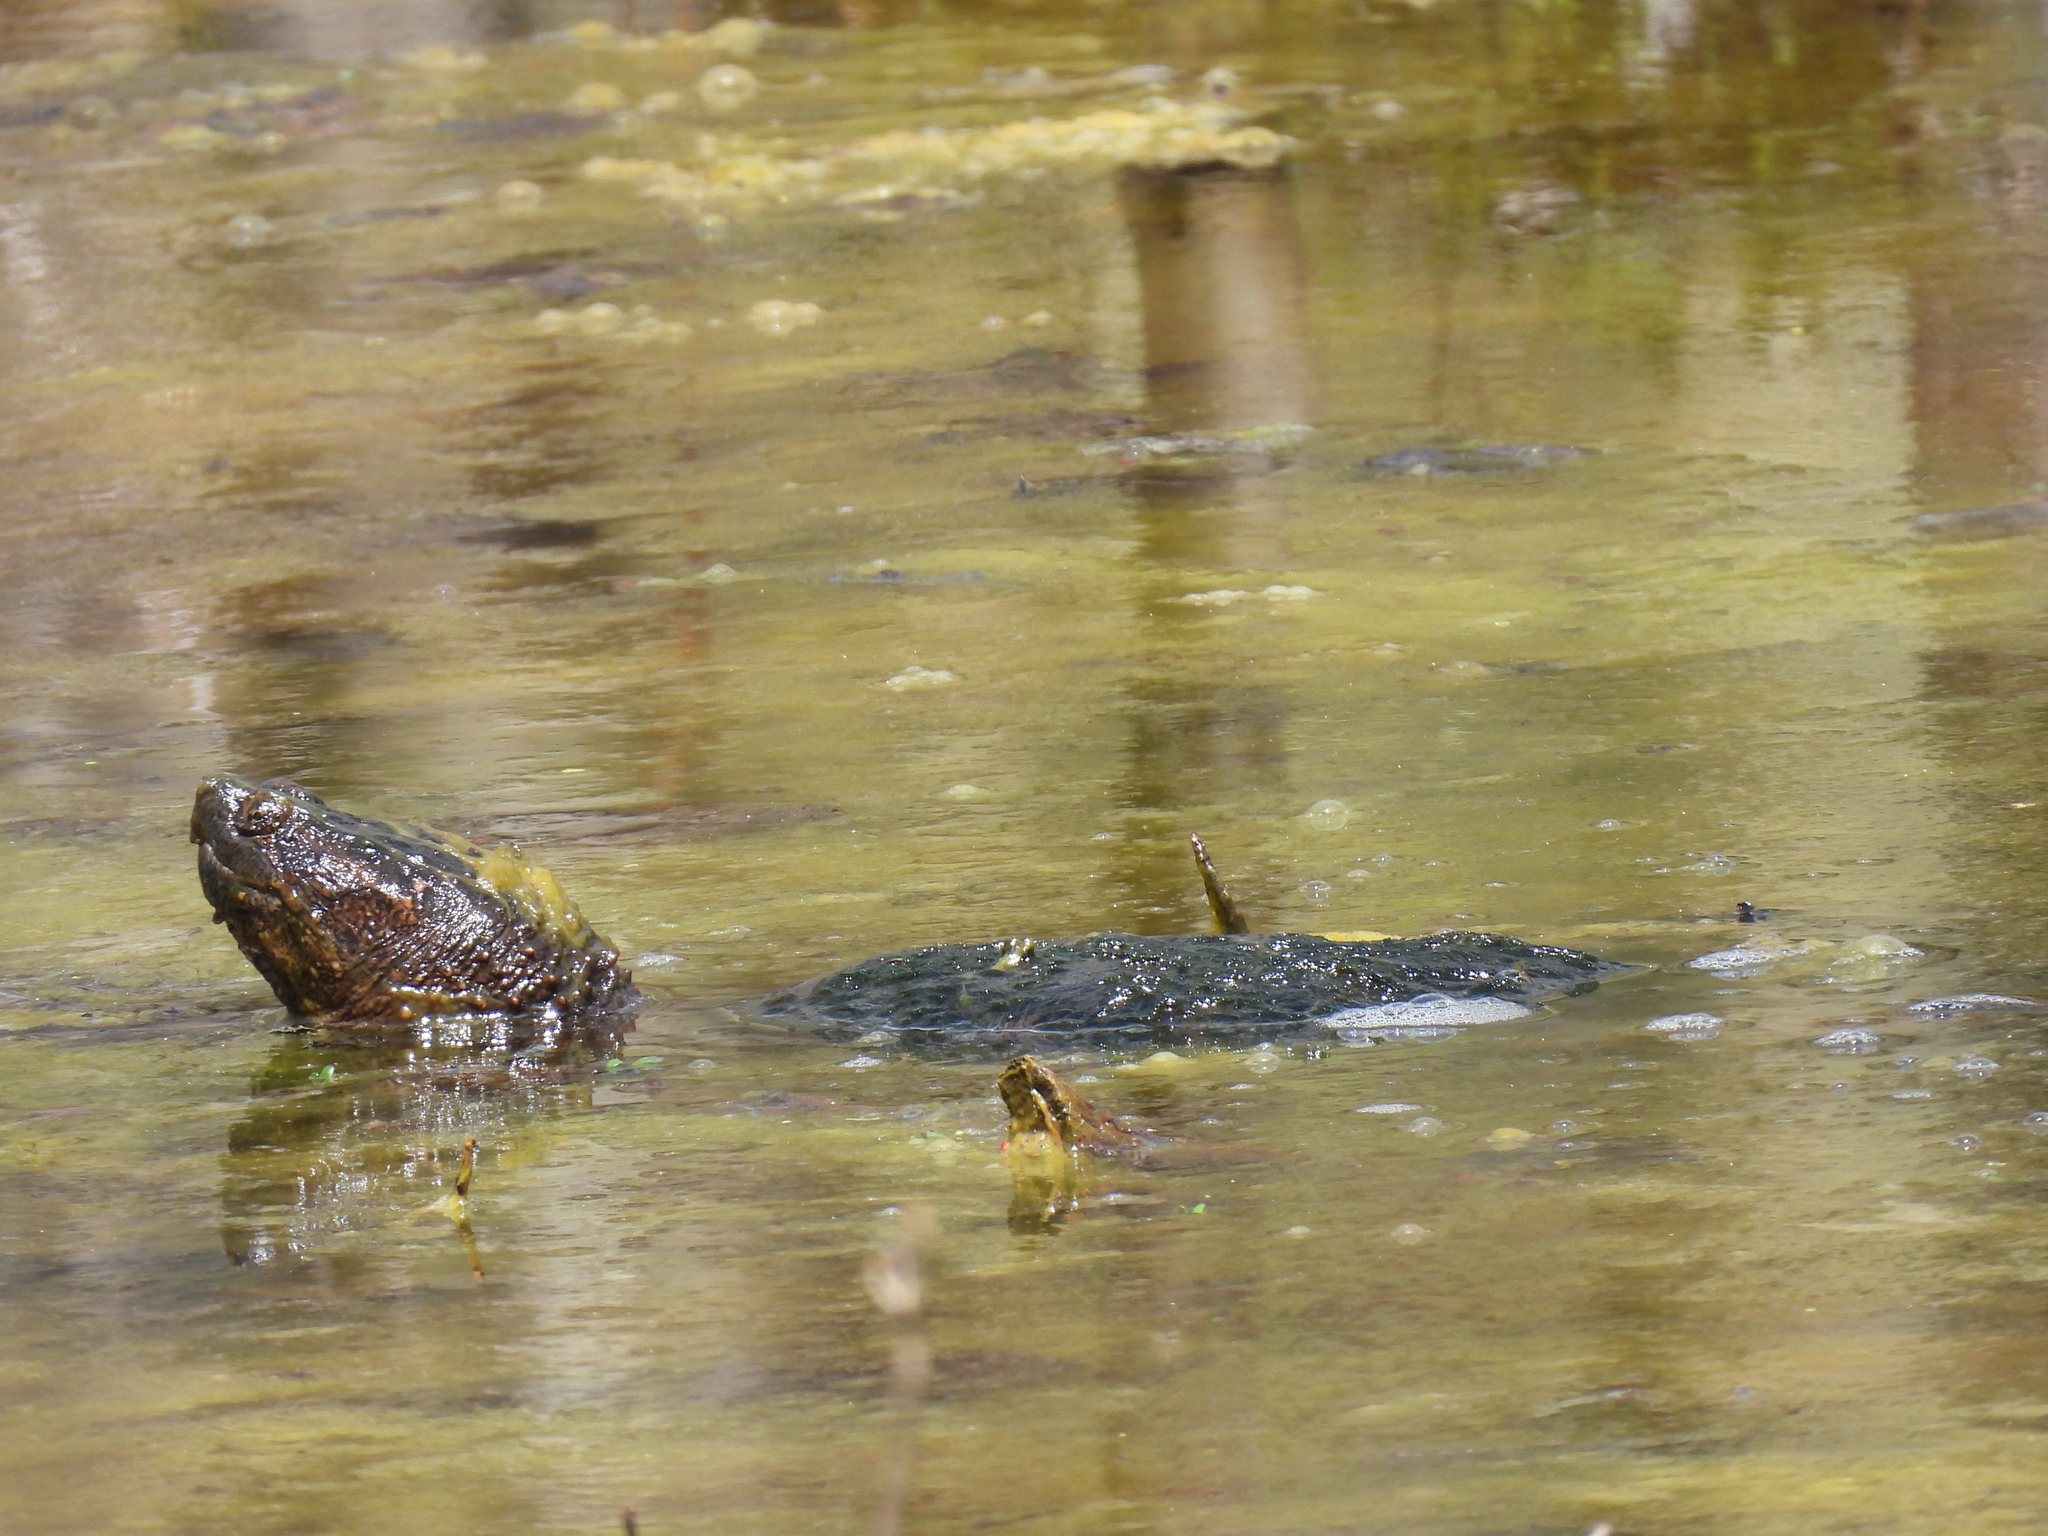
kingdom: Animalia
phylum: Chordata
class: Testudines
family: Chelydridae
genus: Chelydra
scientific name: Chelydra serpentina
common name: Common snapping turtle
